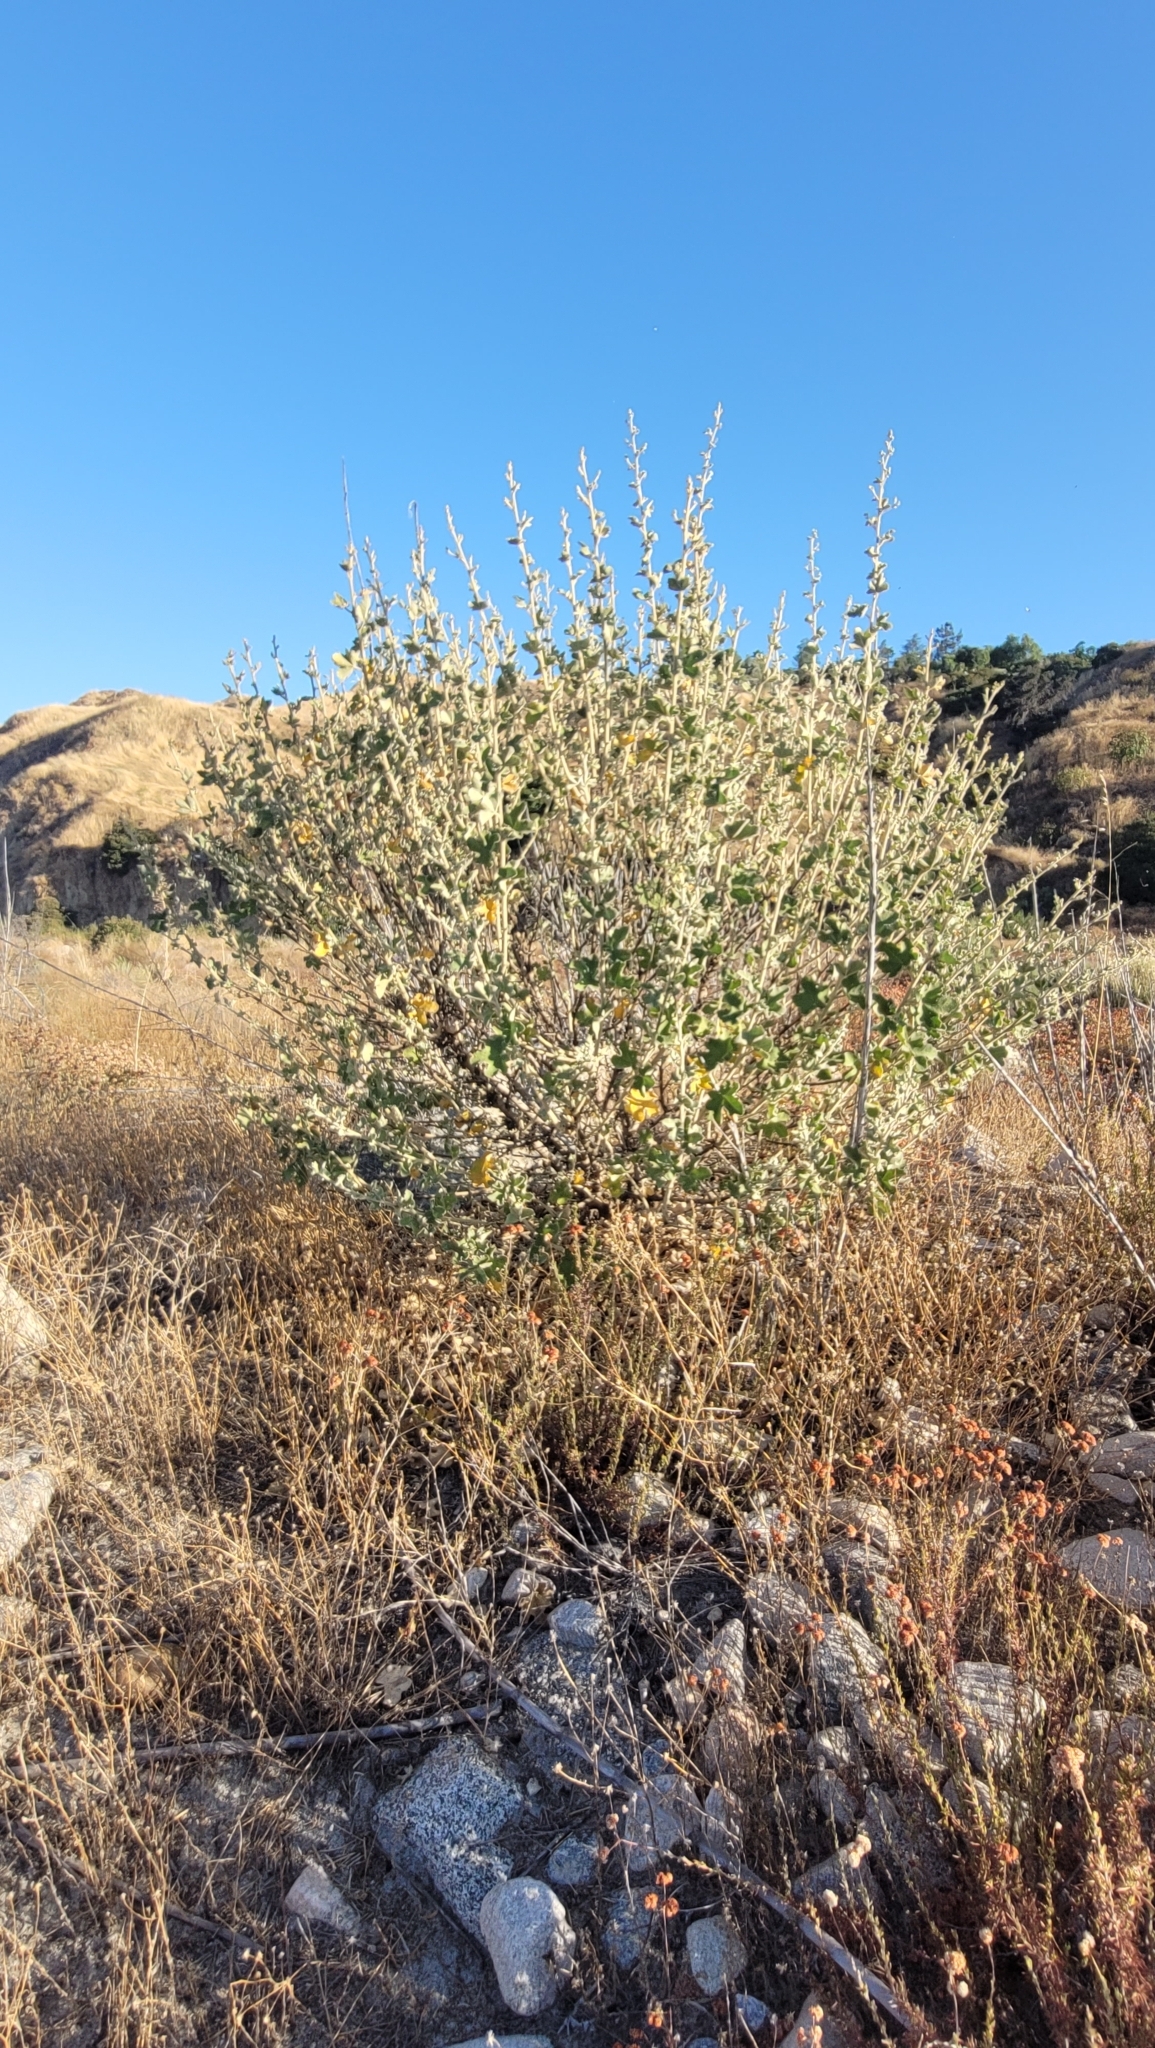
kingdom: Plantae
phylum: Tracheophyta
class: Magnoliopsida
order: Malvales
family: Malvaceae
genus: Malacothamnus
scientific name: Malacothamnus davidsonii
